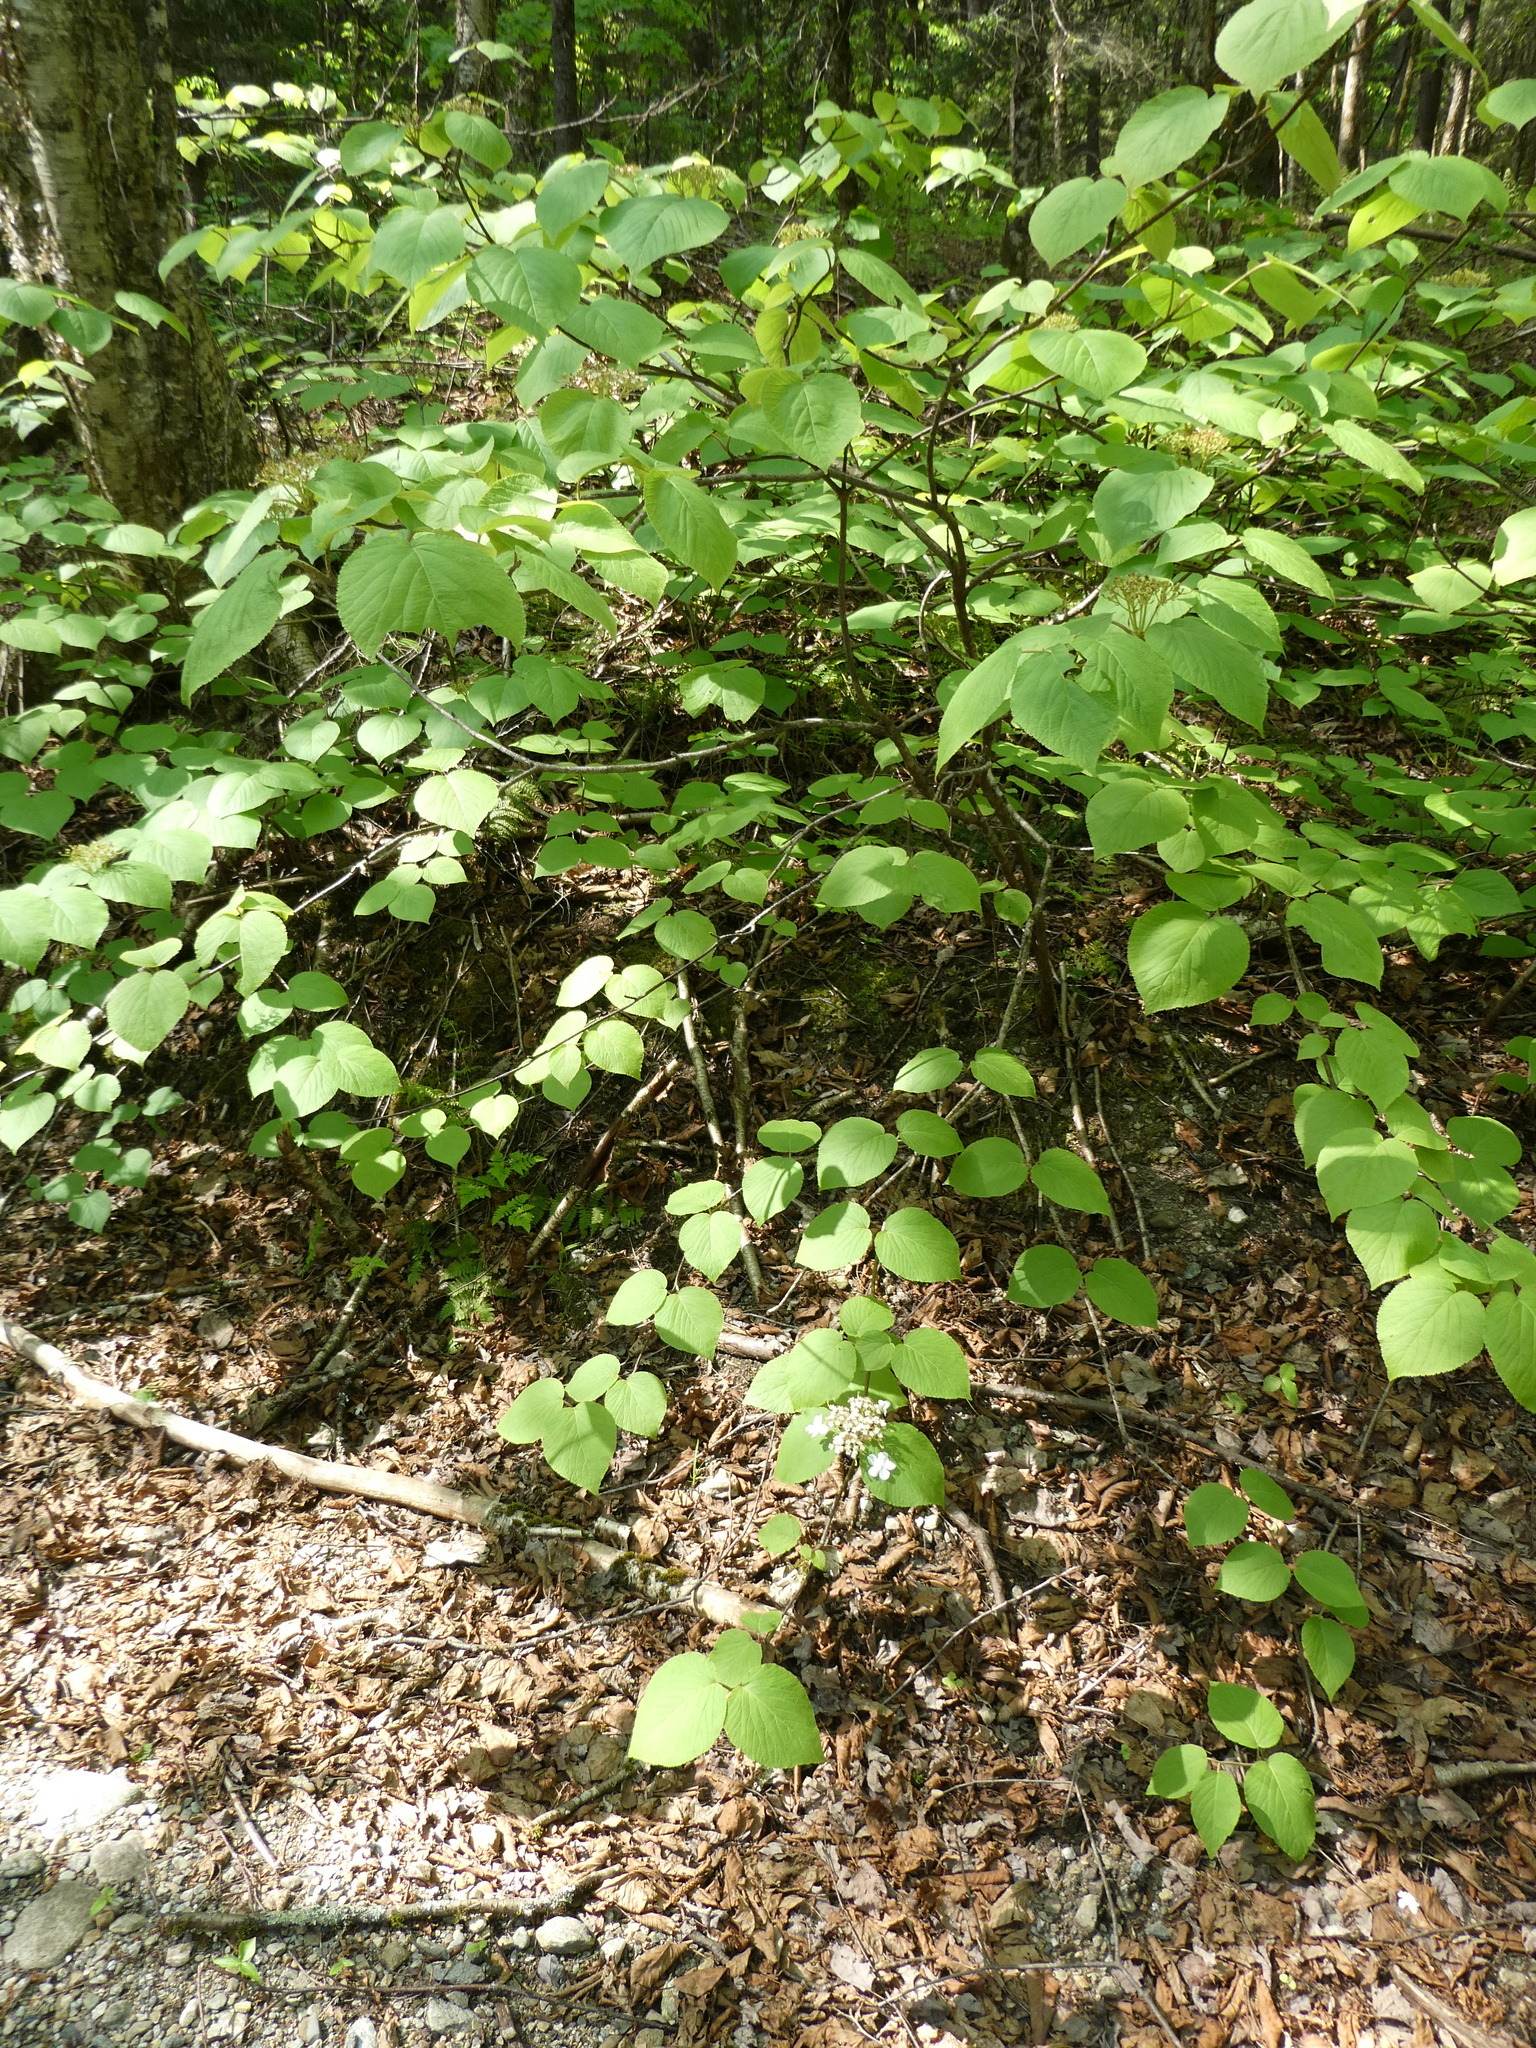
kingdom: Plantae
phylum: Tracheophyta
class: Magnoliopsida
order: Dipsacales
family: Viburnaceae
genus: Viburnum
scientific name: Viburnum lantanoides
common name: Hobblebush
